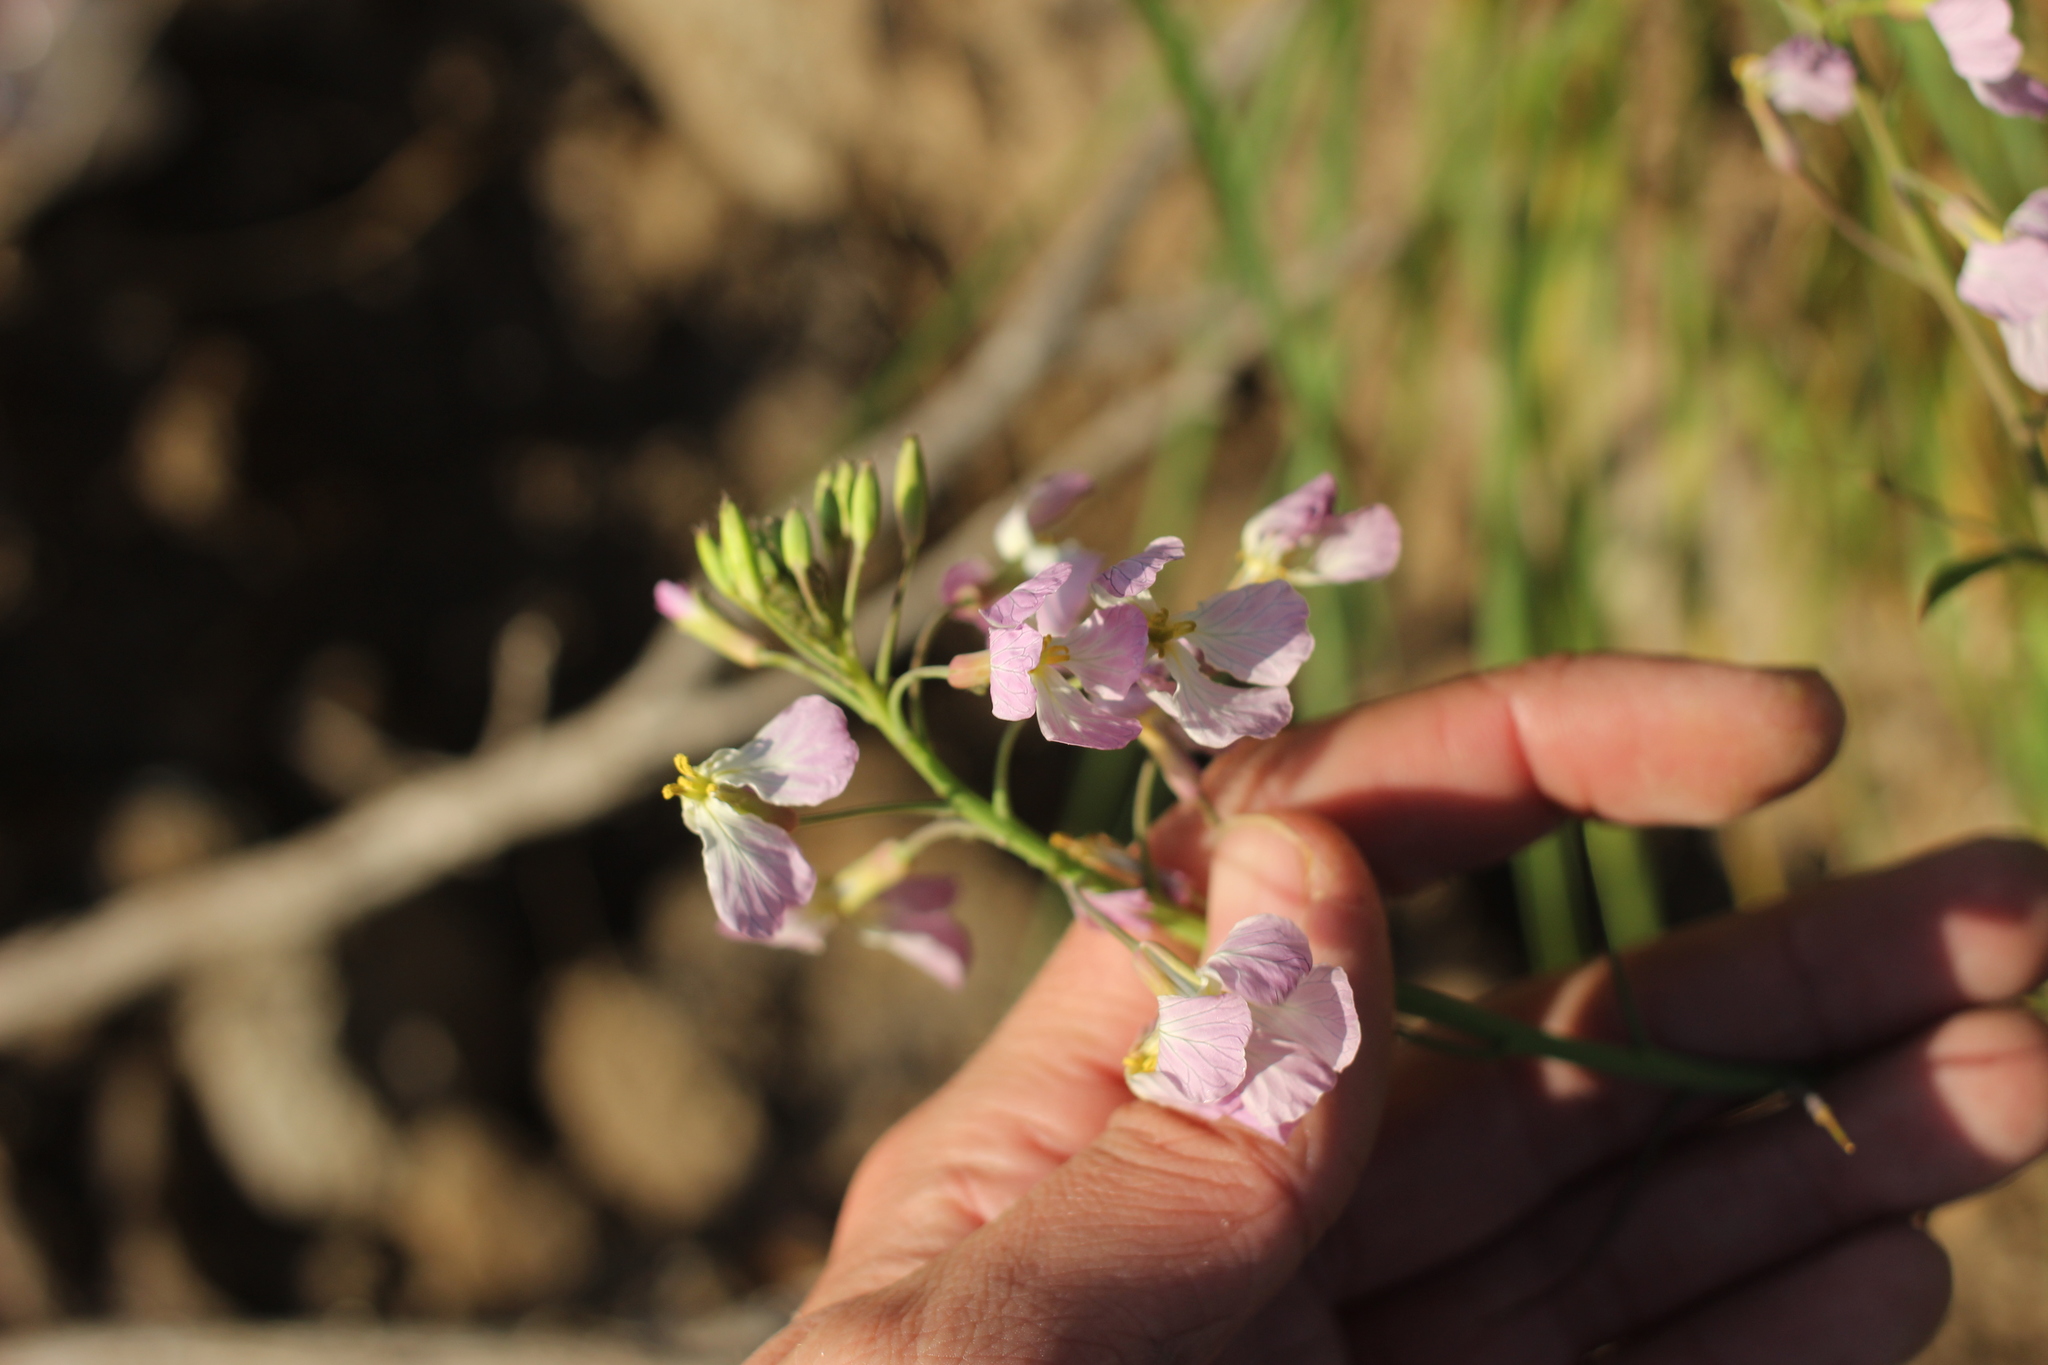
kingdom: Plantae
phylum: Tracheophyta
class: Magnoliopsida
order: Brassicales
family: Brassicaceae
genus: Raphanus
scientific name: Raphanus sativus
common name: Cultivated radish
